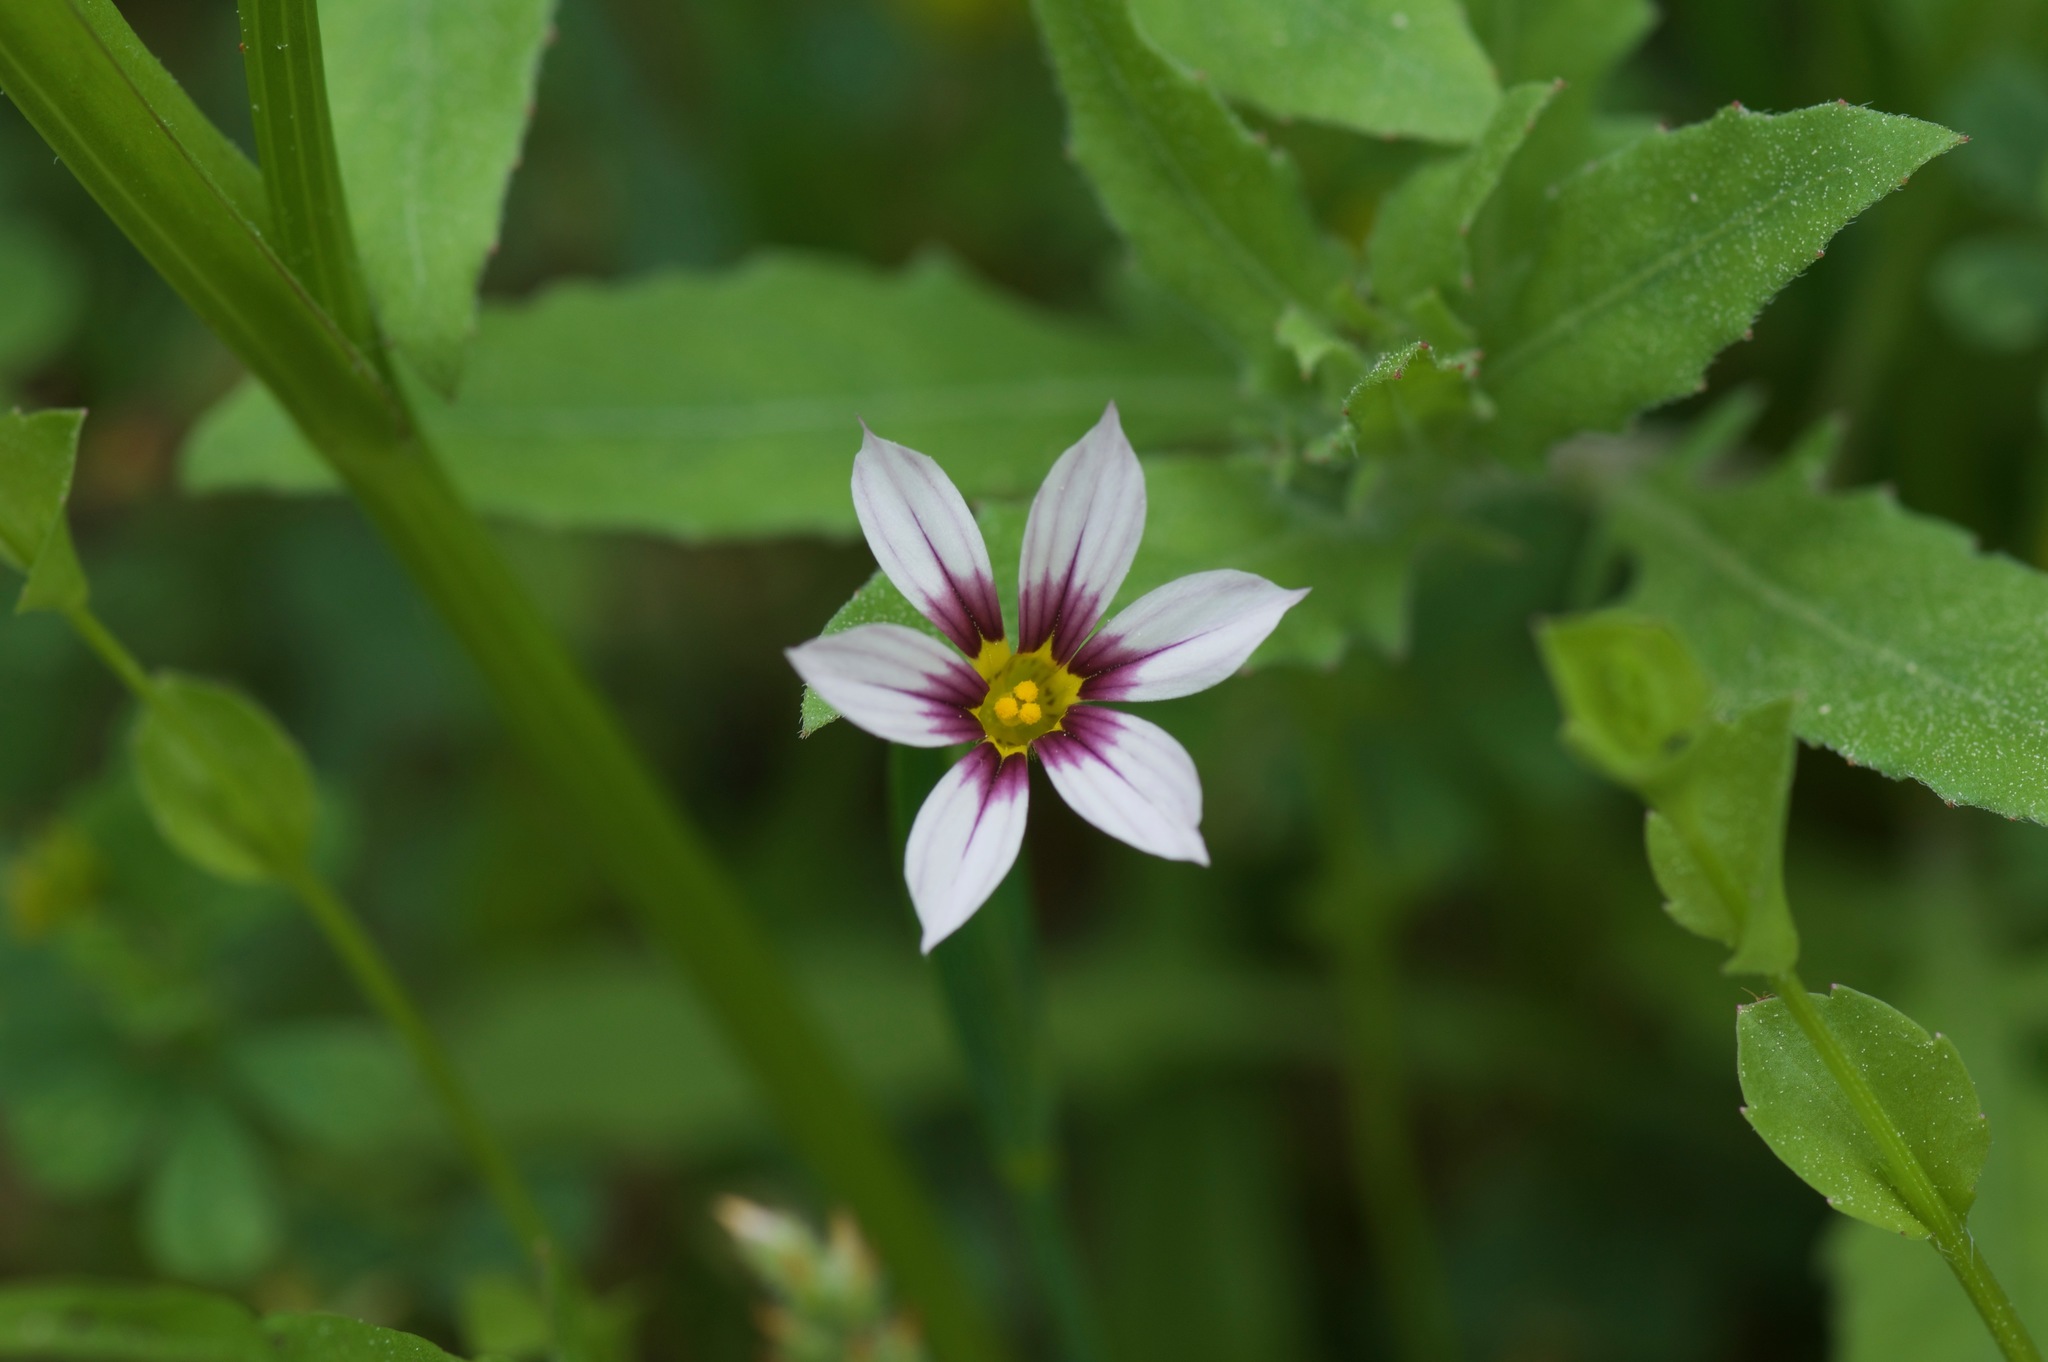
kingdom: Plantae
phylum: Tracheophyta
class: Liliopsida
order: Asparagales
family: Iridaceae
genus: Sisyrinchium
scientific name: Sisyrinchium micranthum
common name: Bermuda pigroot
